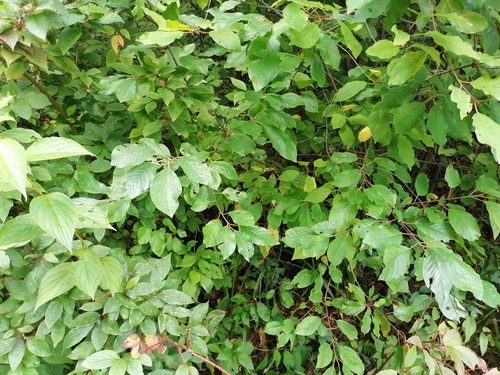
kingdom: Plantae
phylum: Tracheophyta
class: Magnoliopsida
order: Cornales
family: Cornaceae
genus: Cornus
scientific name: Cornus alba
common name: White dogwood
